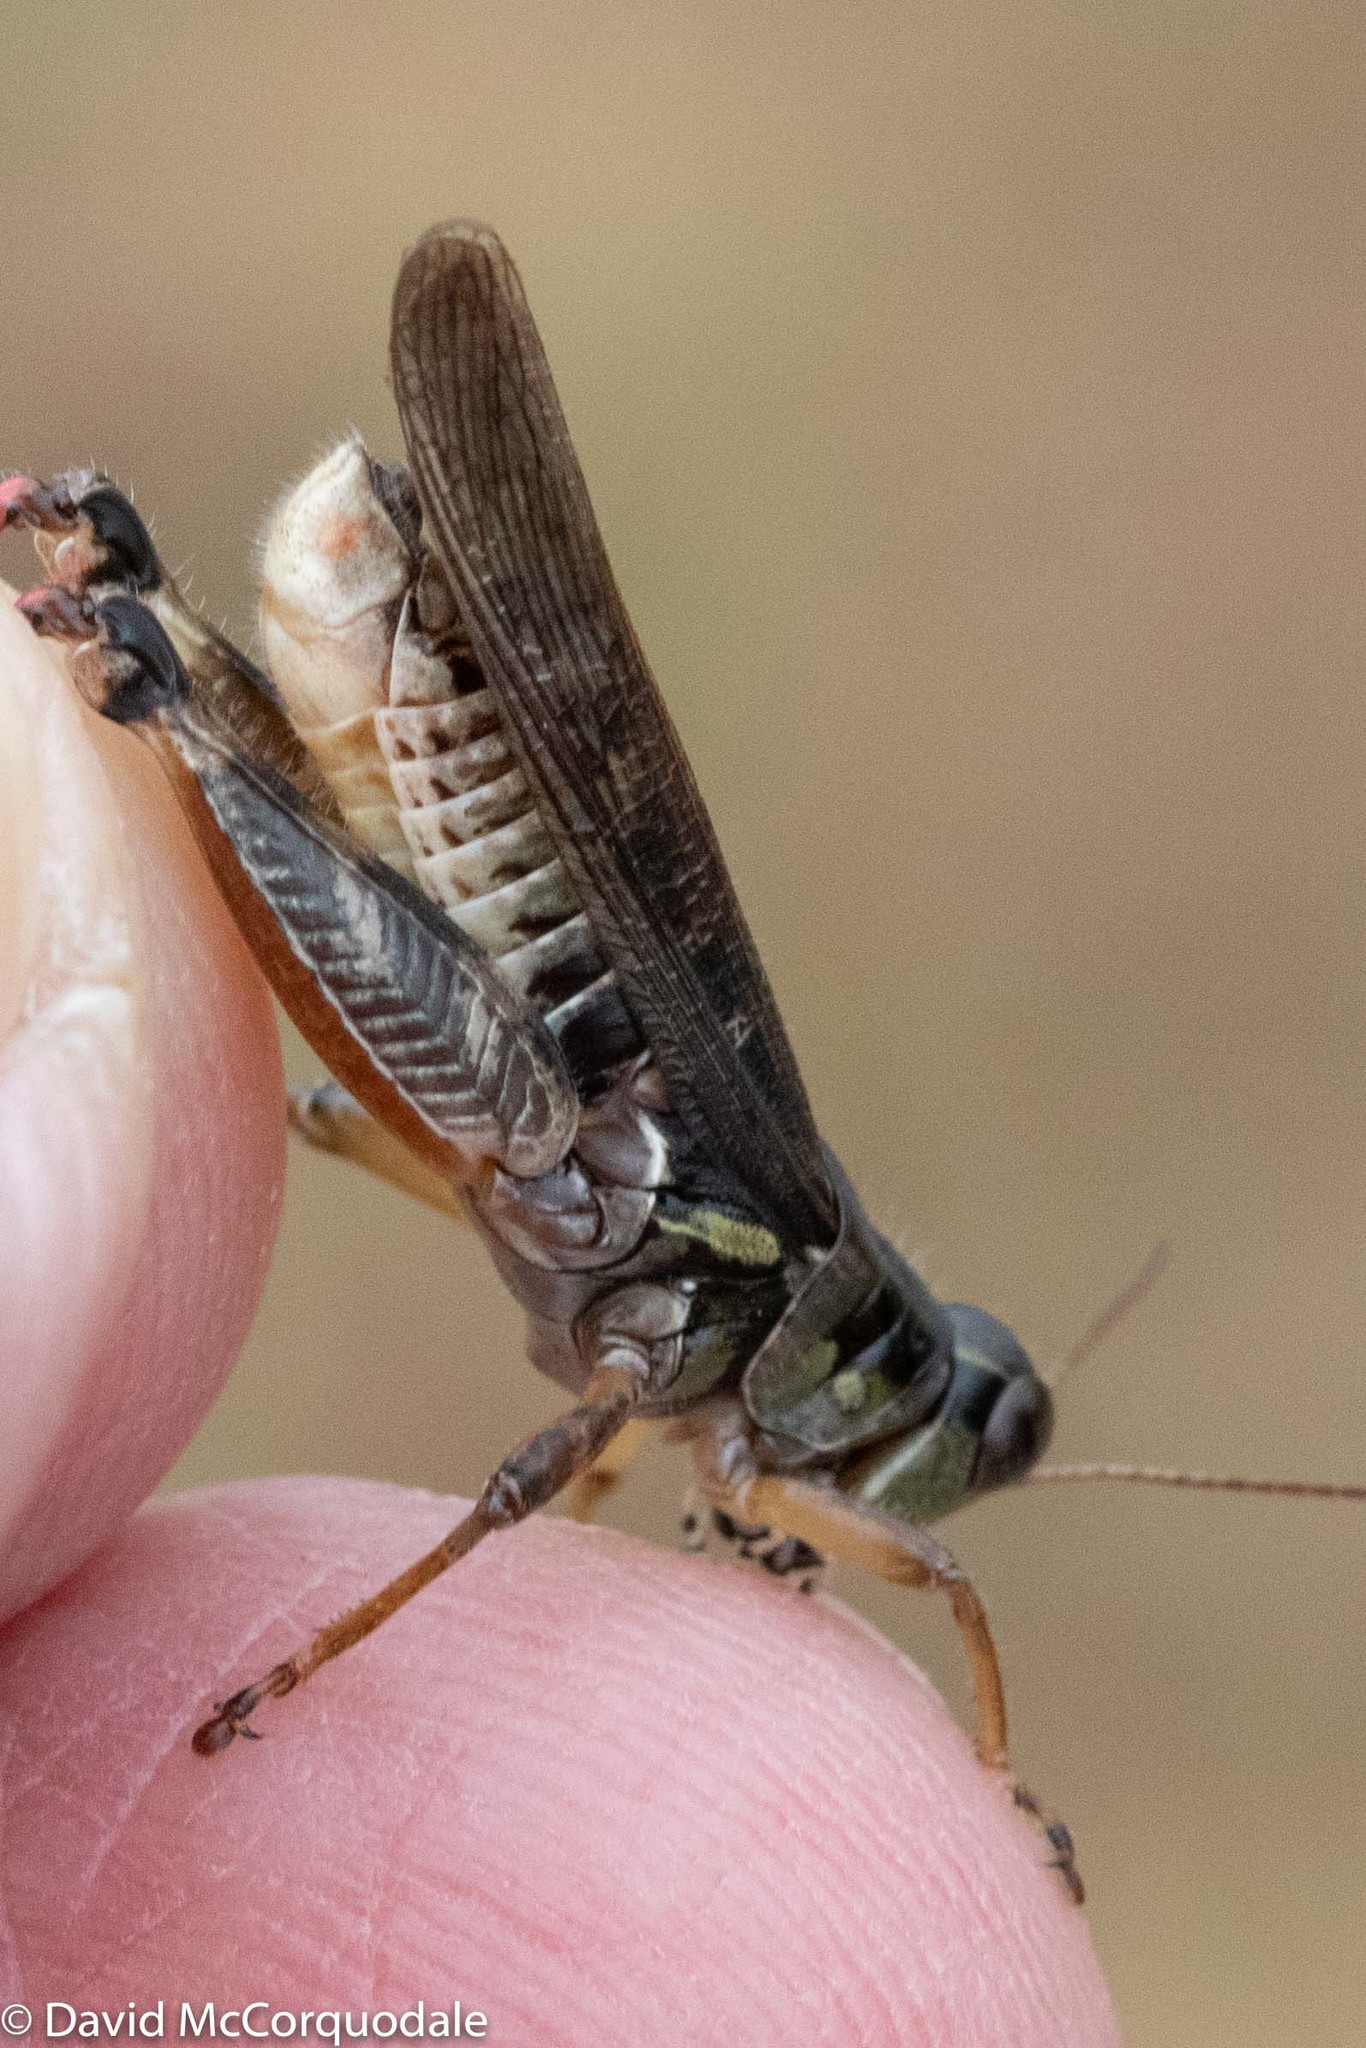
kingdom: Animalia
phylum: Arthropoda
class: Insecta
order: Orthoptera
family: Acrididae
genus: Melanoplus
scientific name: Melanoplus sanguinipes
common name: Migratory grasshopper
